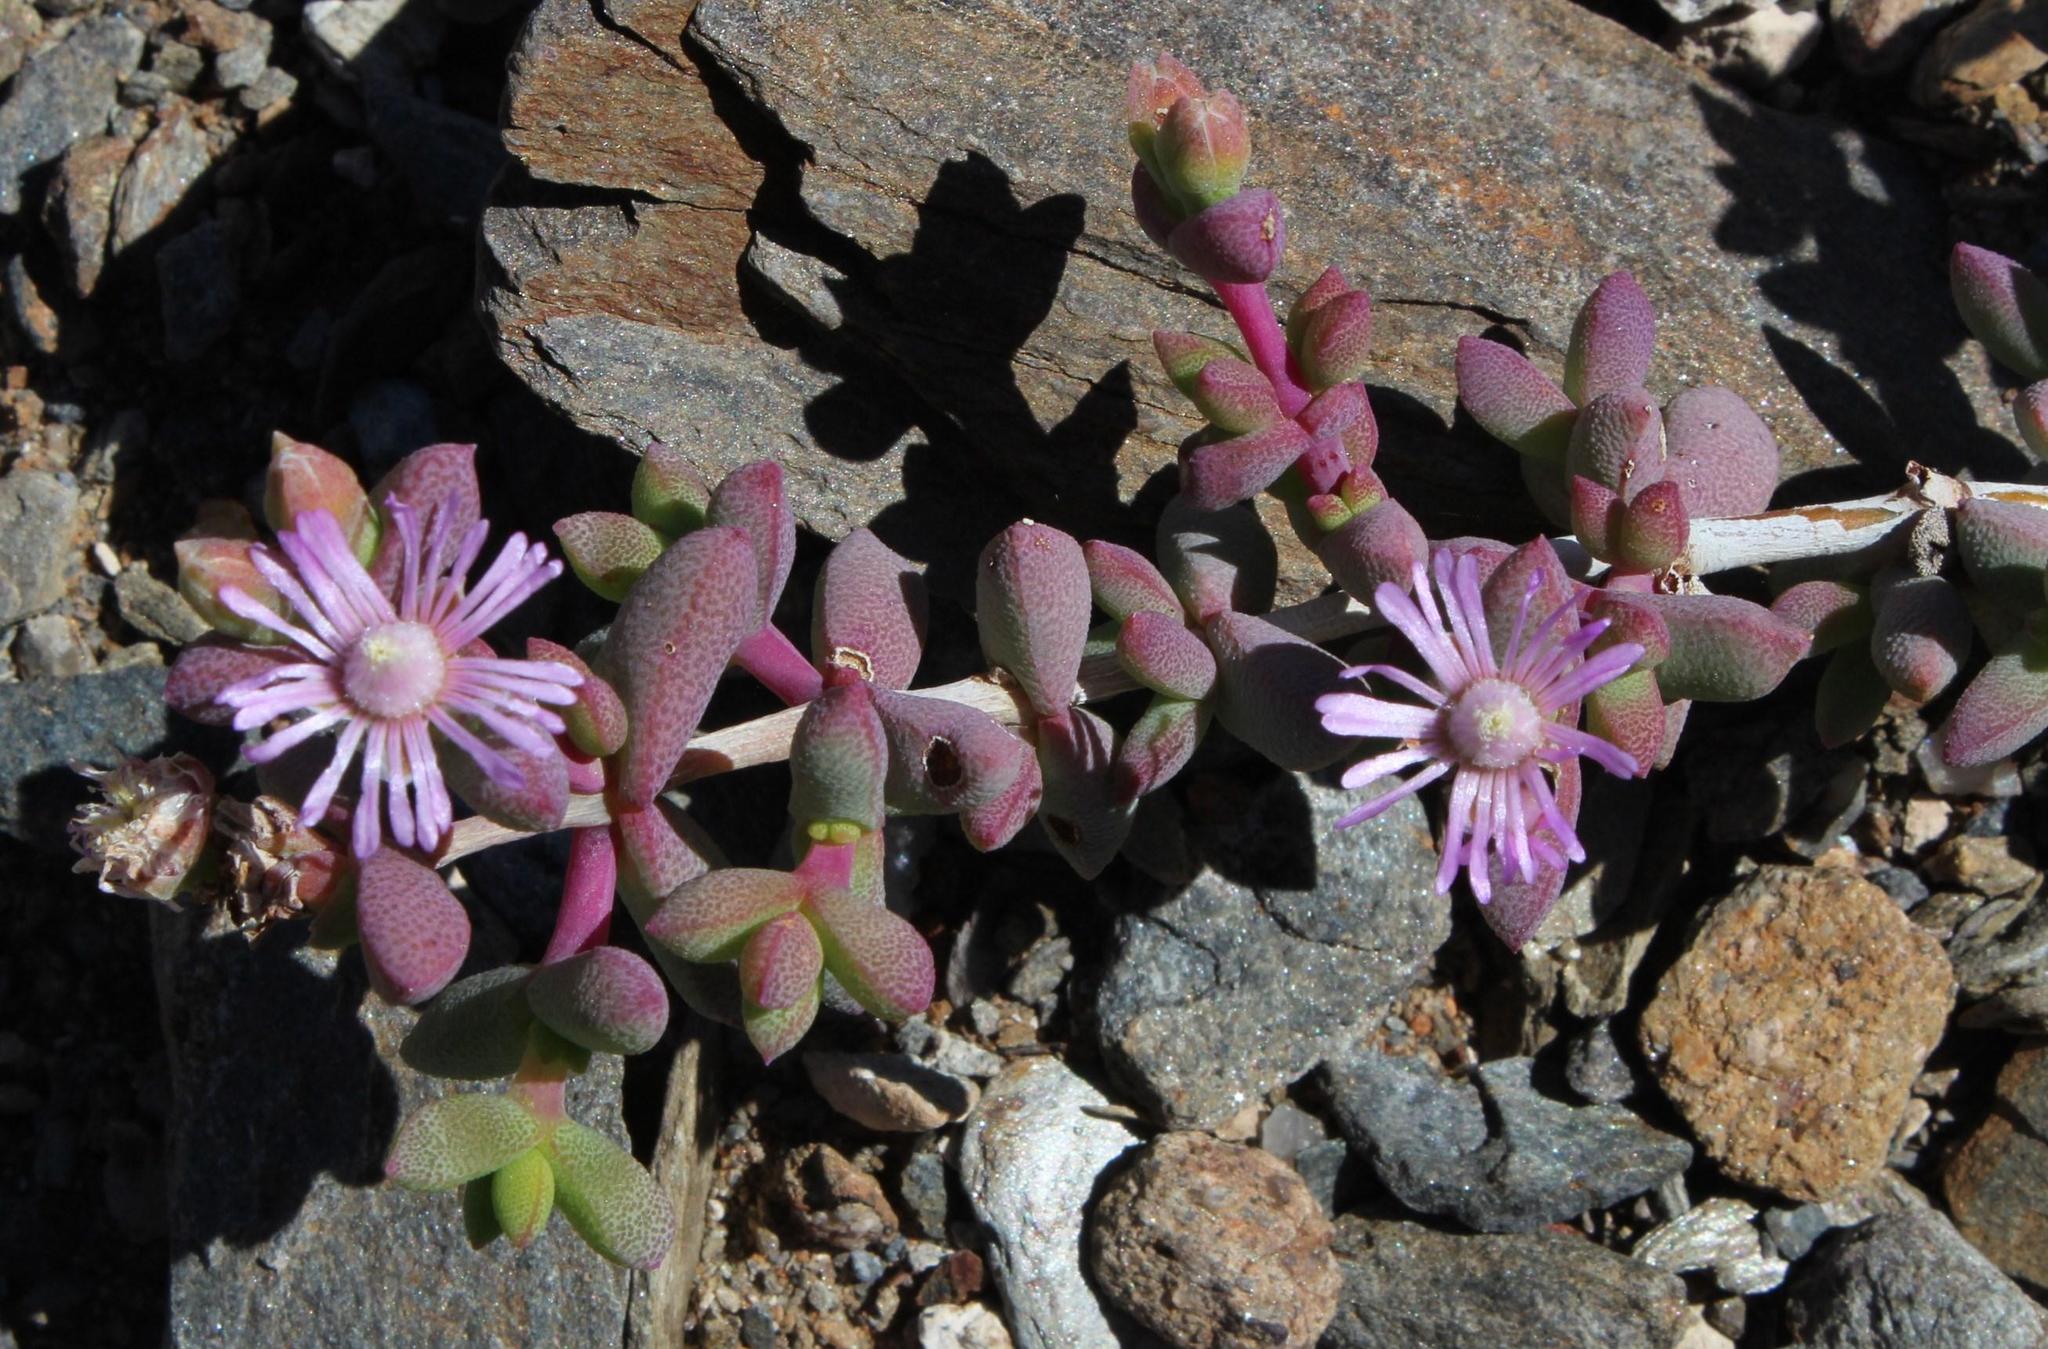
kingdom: Plantae
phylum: Tracheophyta
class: Magnoliopsida
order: Caryophyllales
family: Aizoaceae
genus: Eberlanzia
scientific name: Eberlanzia schneideriana
